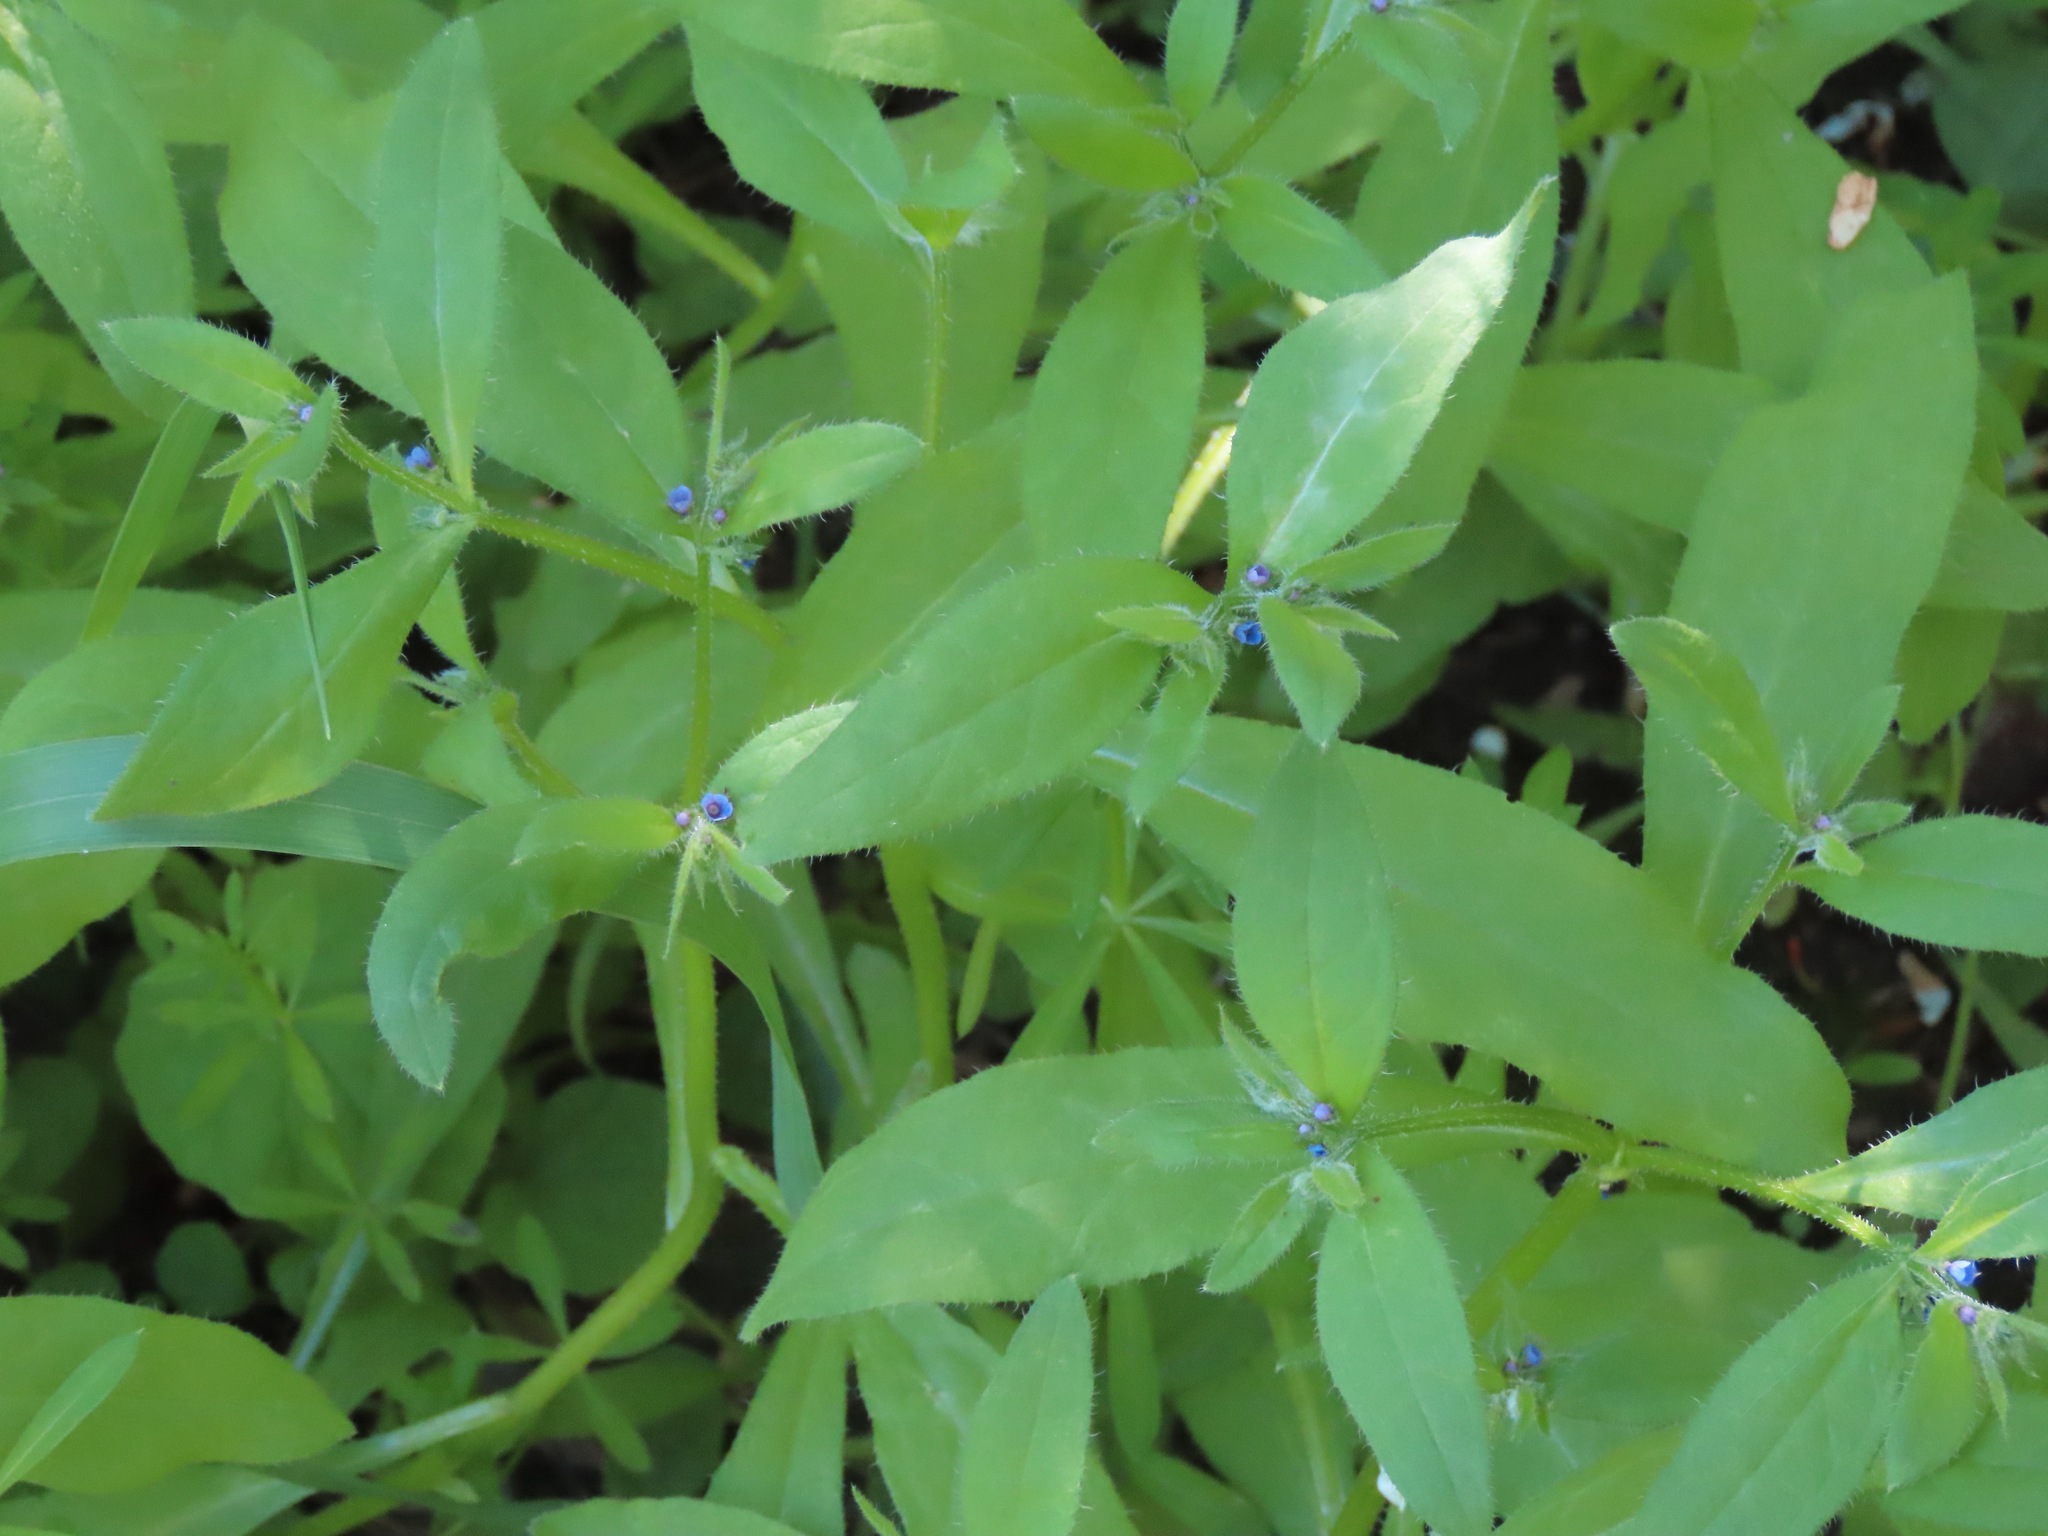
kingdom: Plantae
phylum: Tracheophyta
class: Magnoliopsida
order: Boraginales
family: Boraginaceae
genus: Asperugo
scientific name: Asperugo procumbens
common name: Madwort
